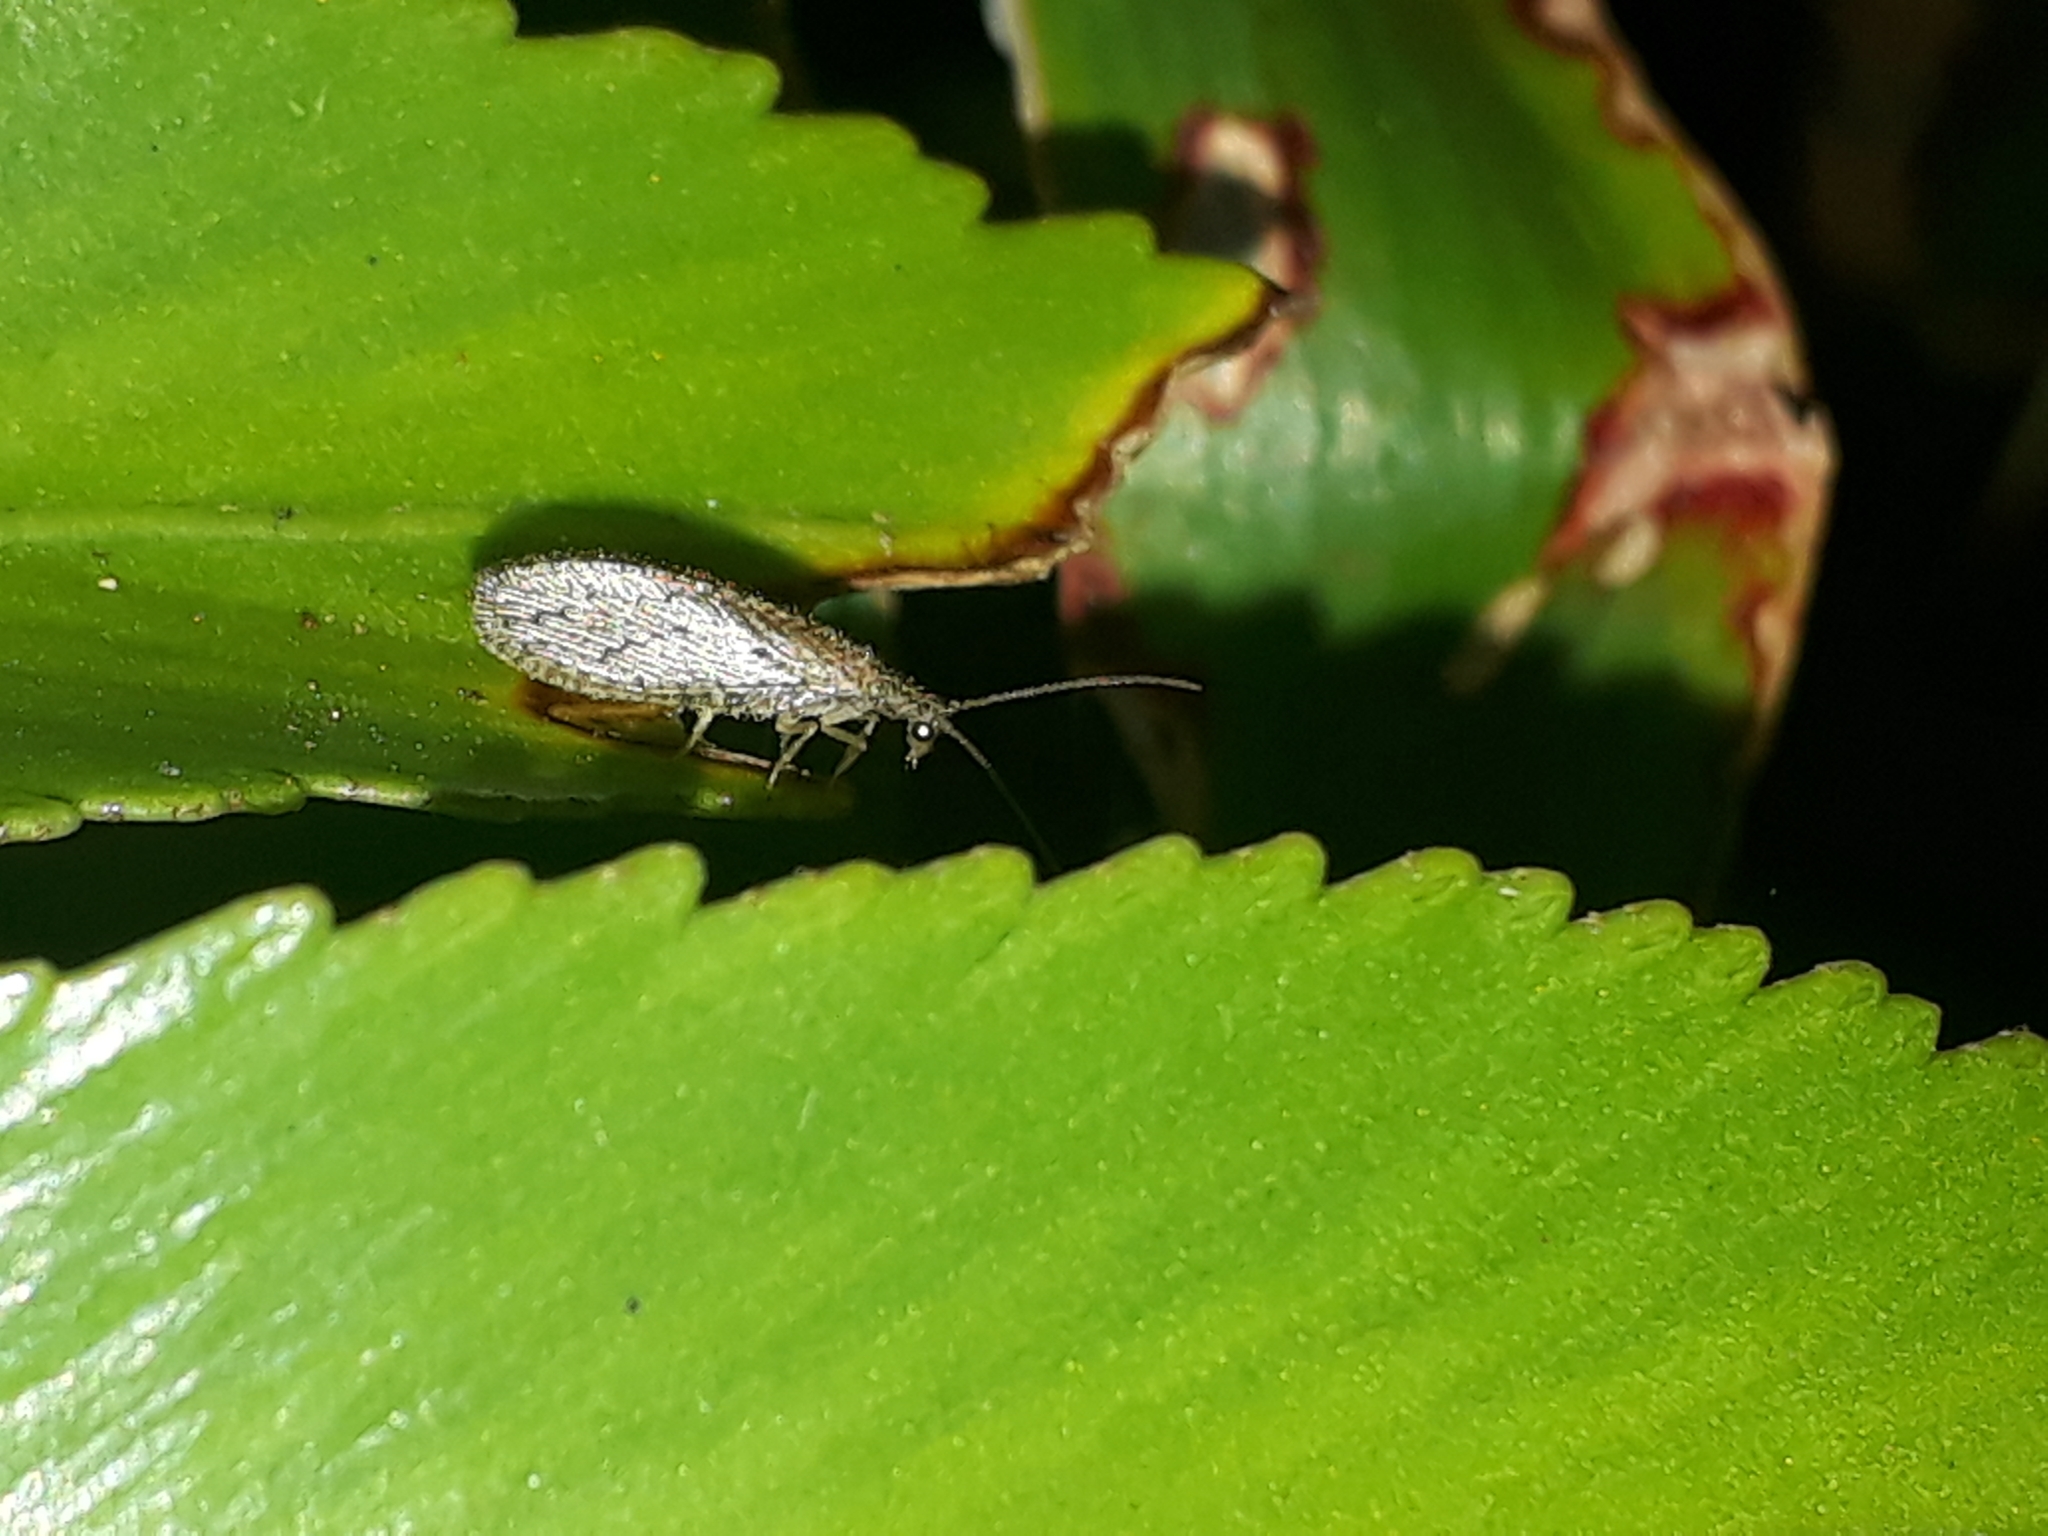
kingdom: Animalia
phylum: Arthropoda
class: Insecta
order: Neuroptera
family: Hemerobiidae
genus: Micromus
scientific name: Micromus tasmaniae
